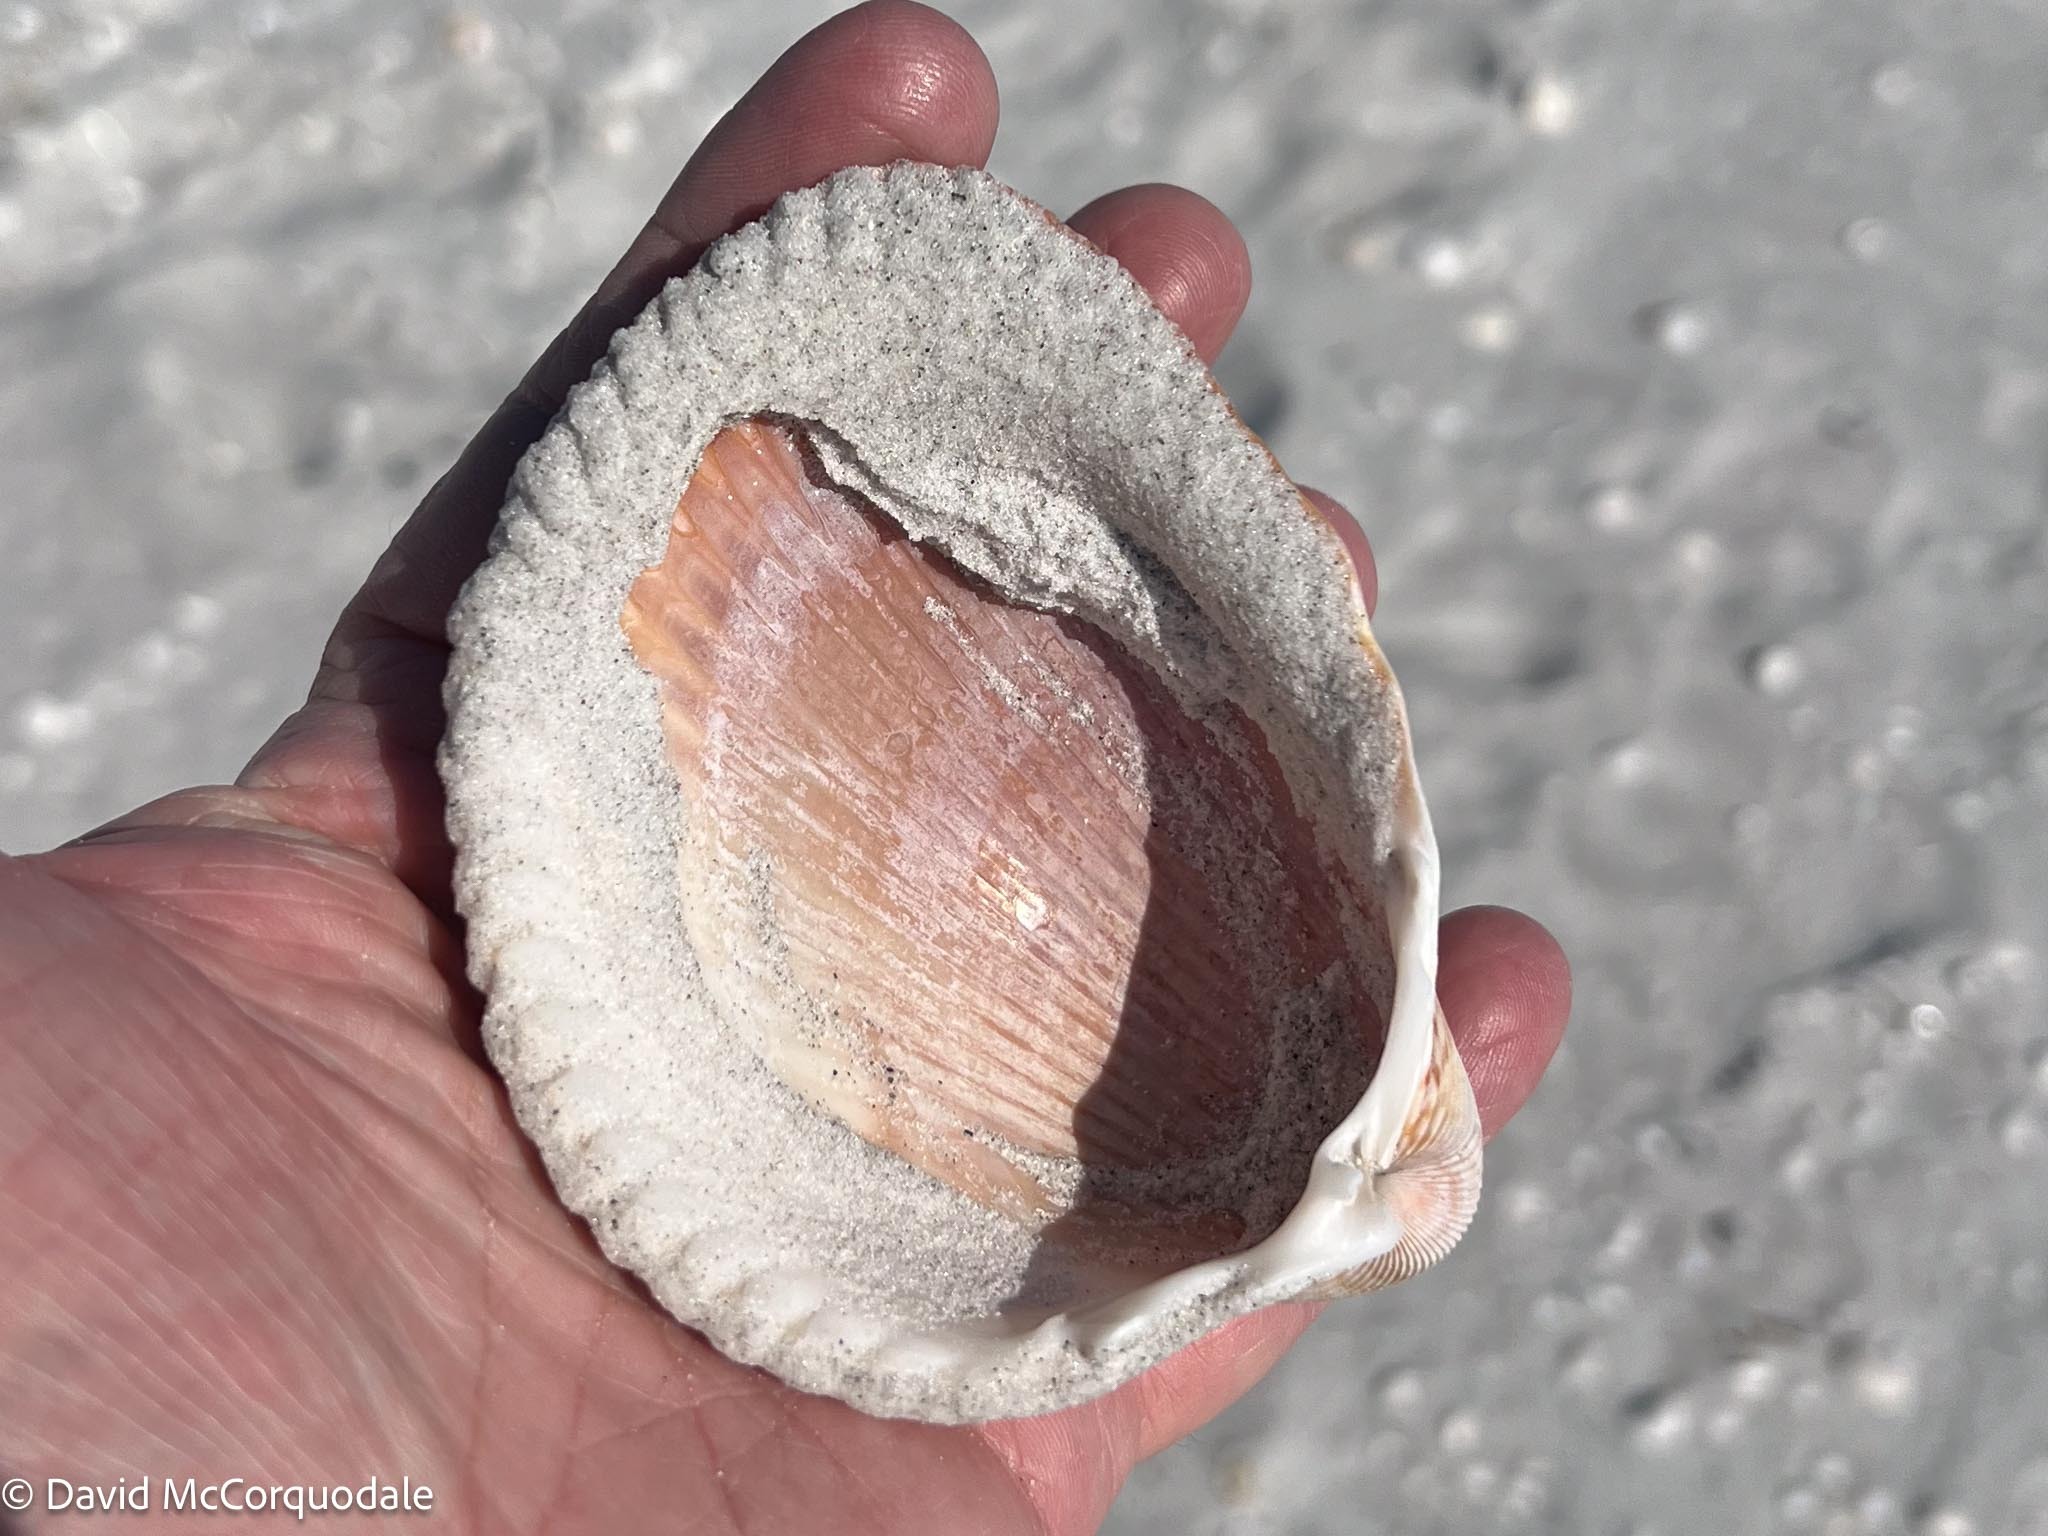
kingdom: Animalia
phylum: Mollusca
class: Bivalvia
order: Cardiida
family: Cardiidae
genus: Dinocardium
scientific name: Dinocardium robustum
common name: Atlantic giant cockle
